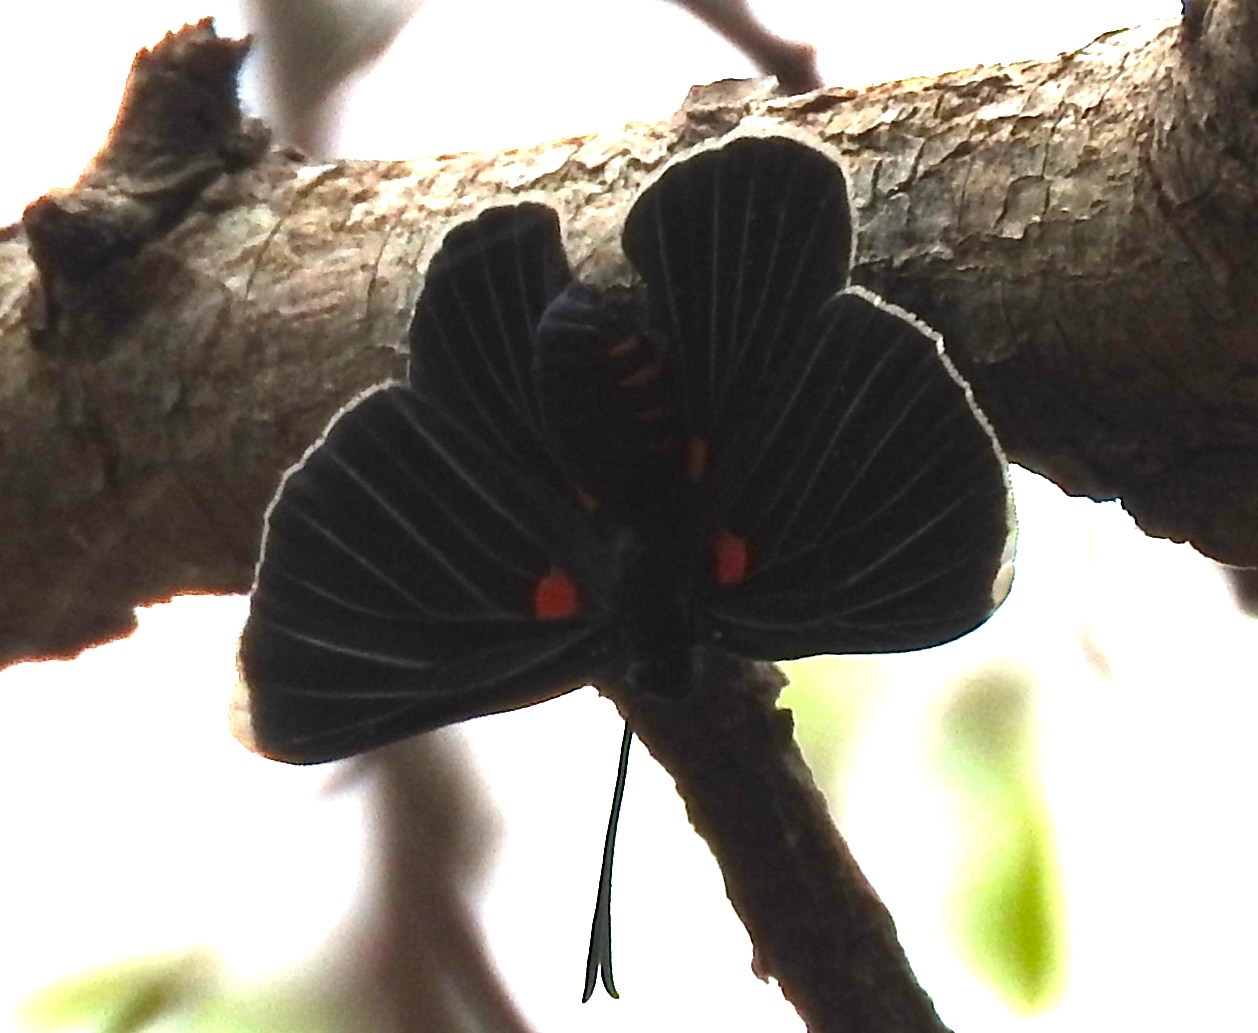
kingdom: Animalia
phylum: Arthropoda
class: Insecta
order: Lepidoptera
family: Lycaenidae
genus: Melanis
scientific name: Melanis
